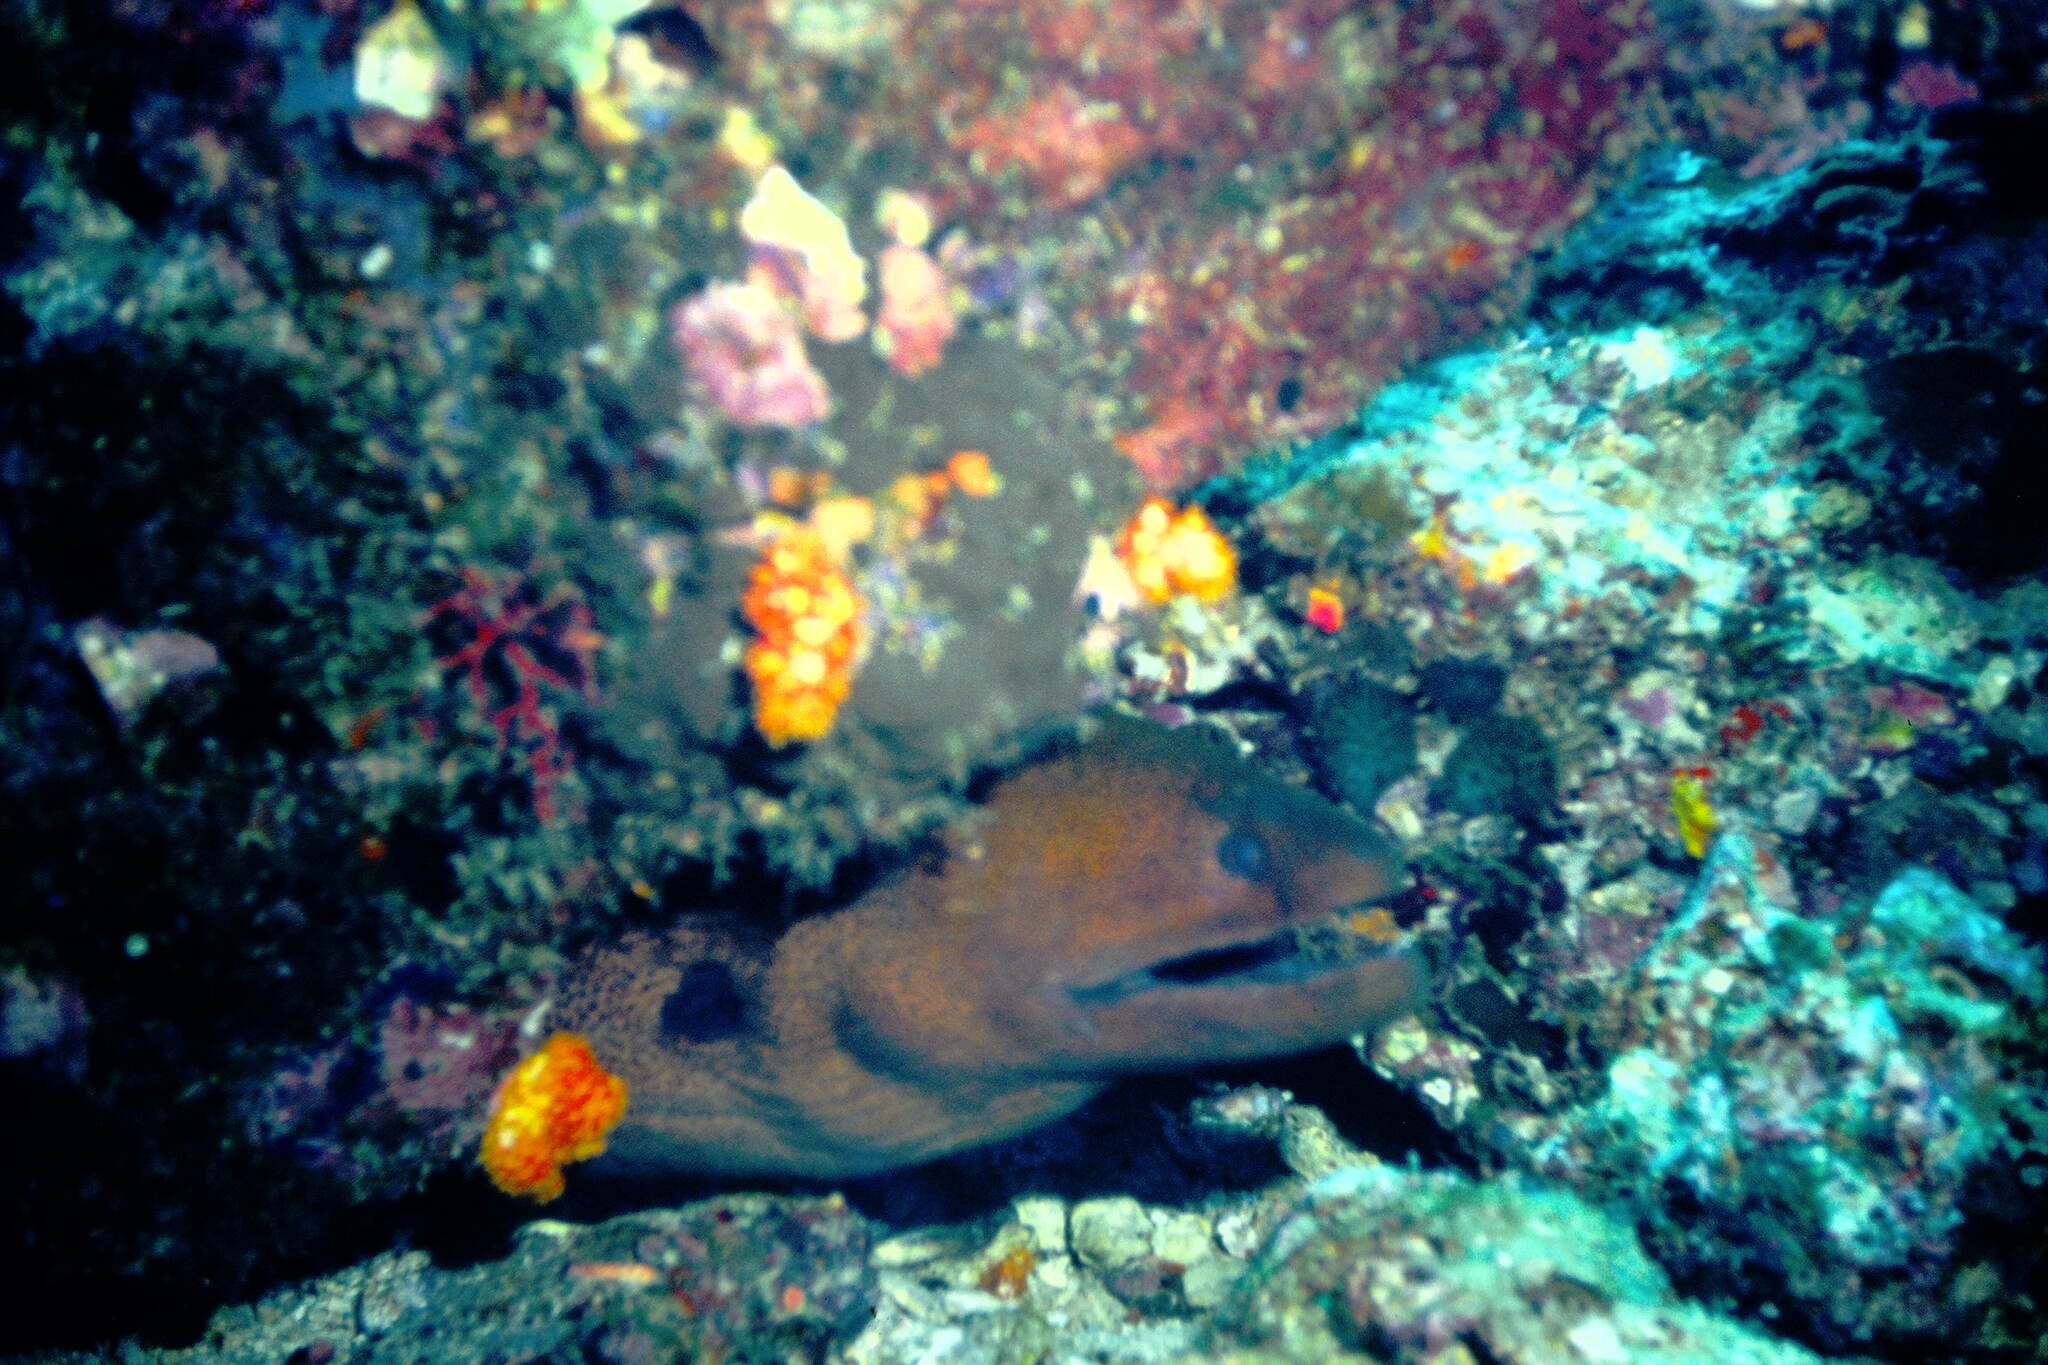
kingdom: Animalia
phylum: Chordata
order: Anguilliformes
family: Muraenidae
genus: Gymnothorax
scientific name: Gymnothorax javanicus
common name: Giant moray
